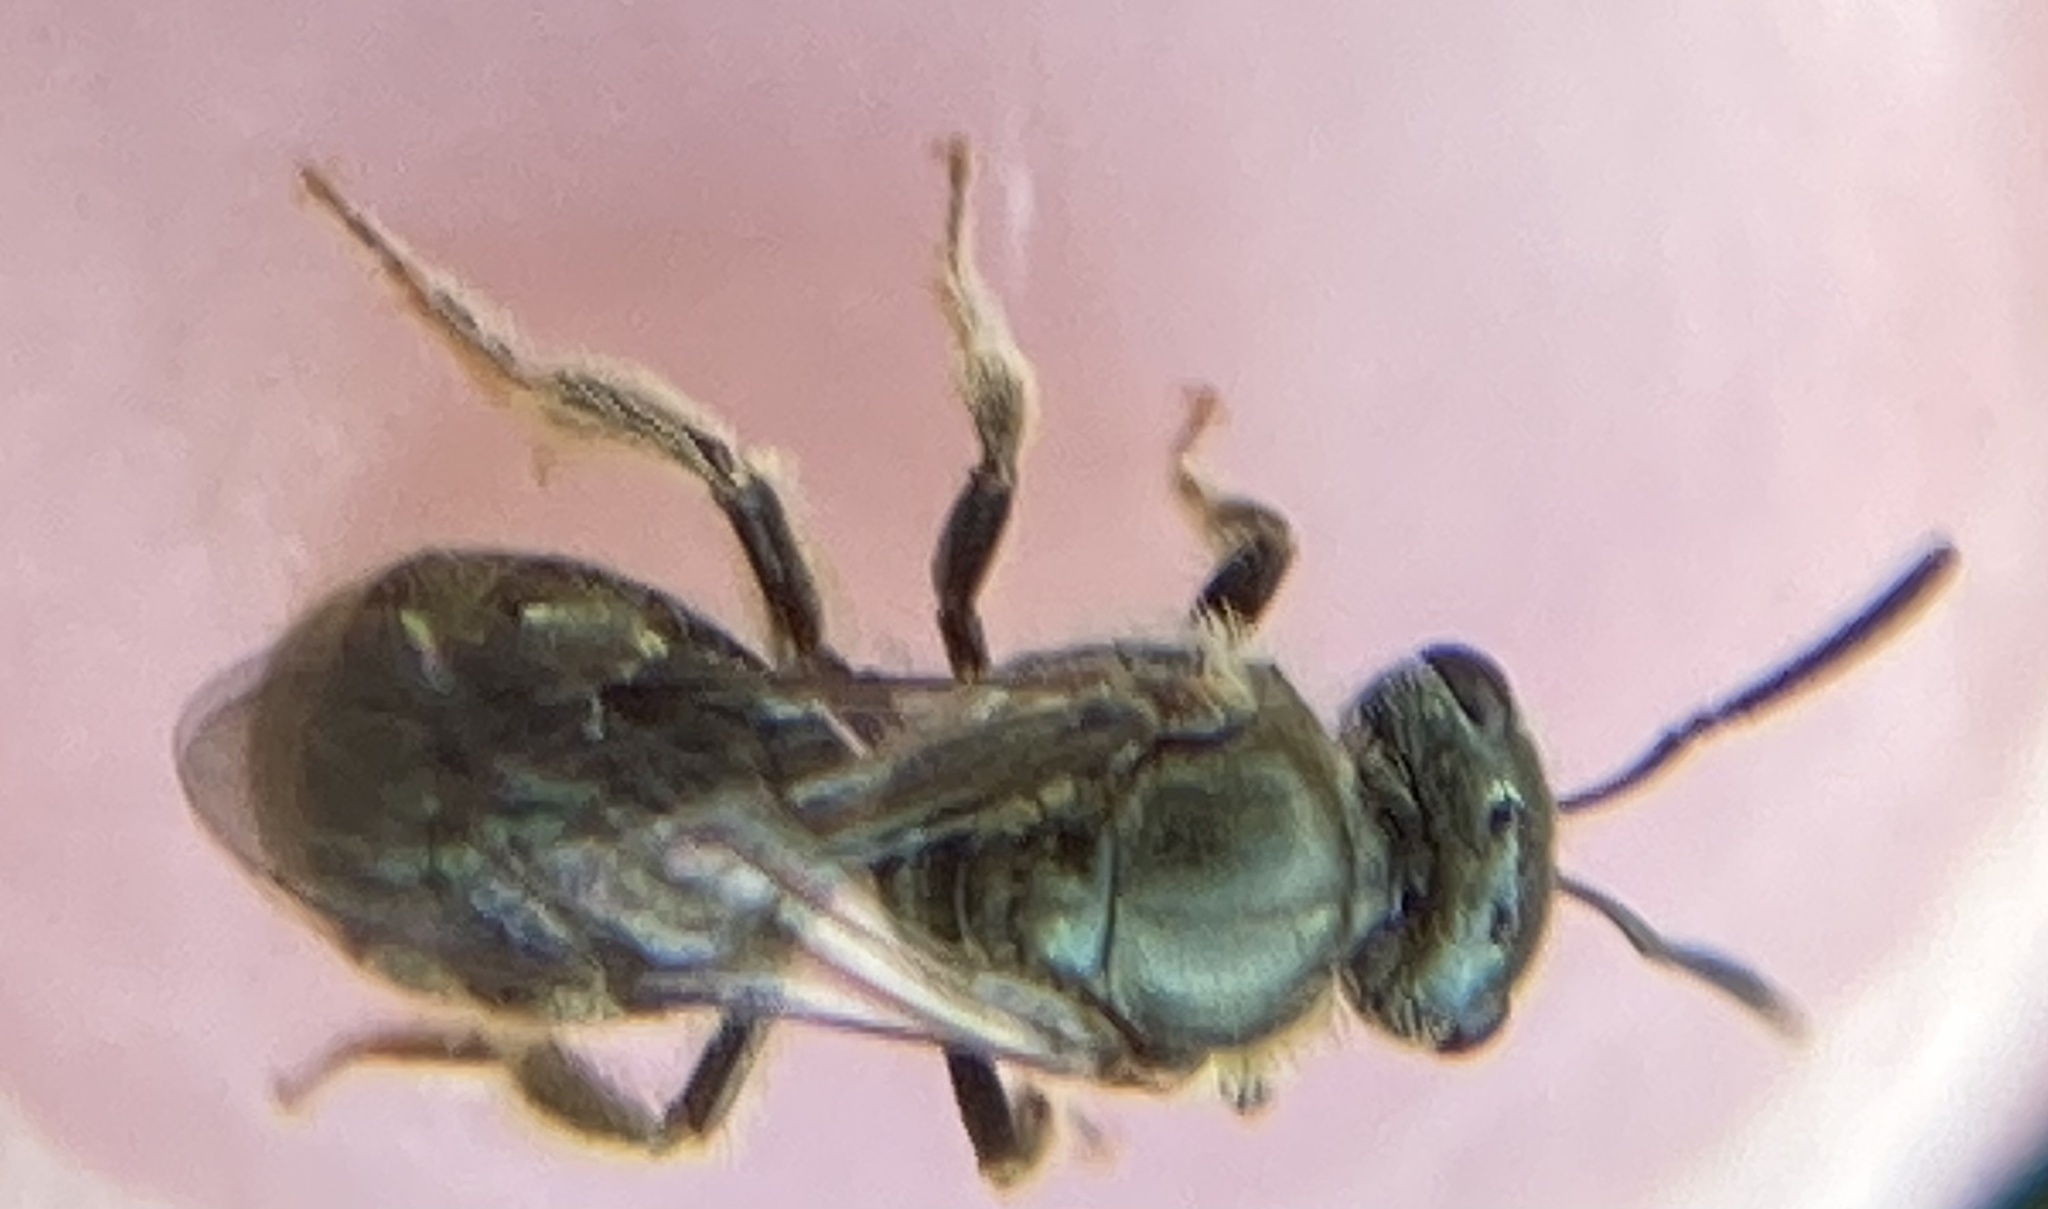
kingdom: Animalia
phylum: Arthropoda
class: Insecta
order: Hymenoptera
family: Halictidae
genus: Dialictus
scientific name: Dialictus
